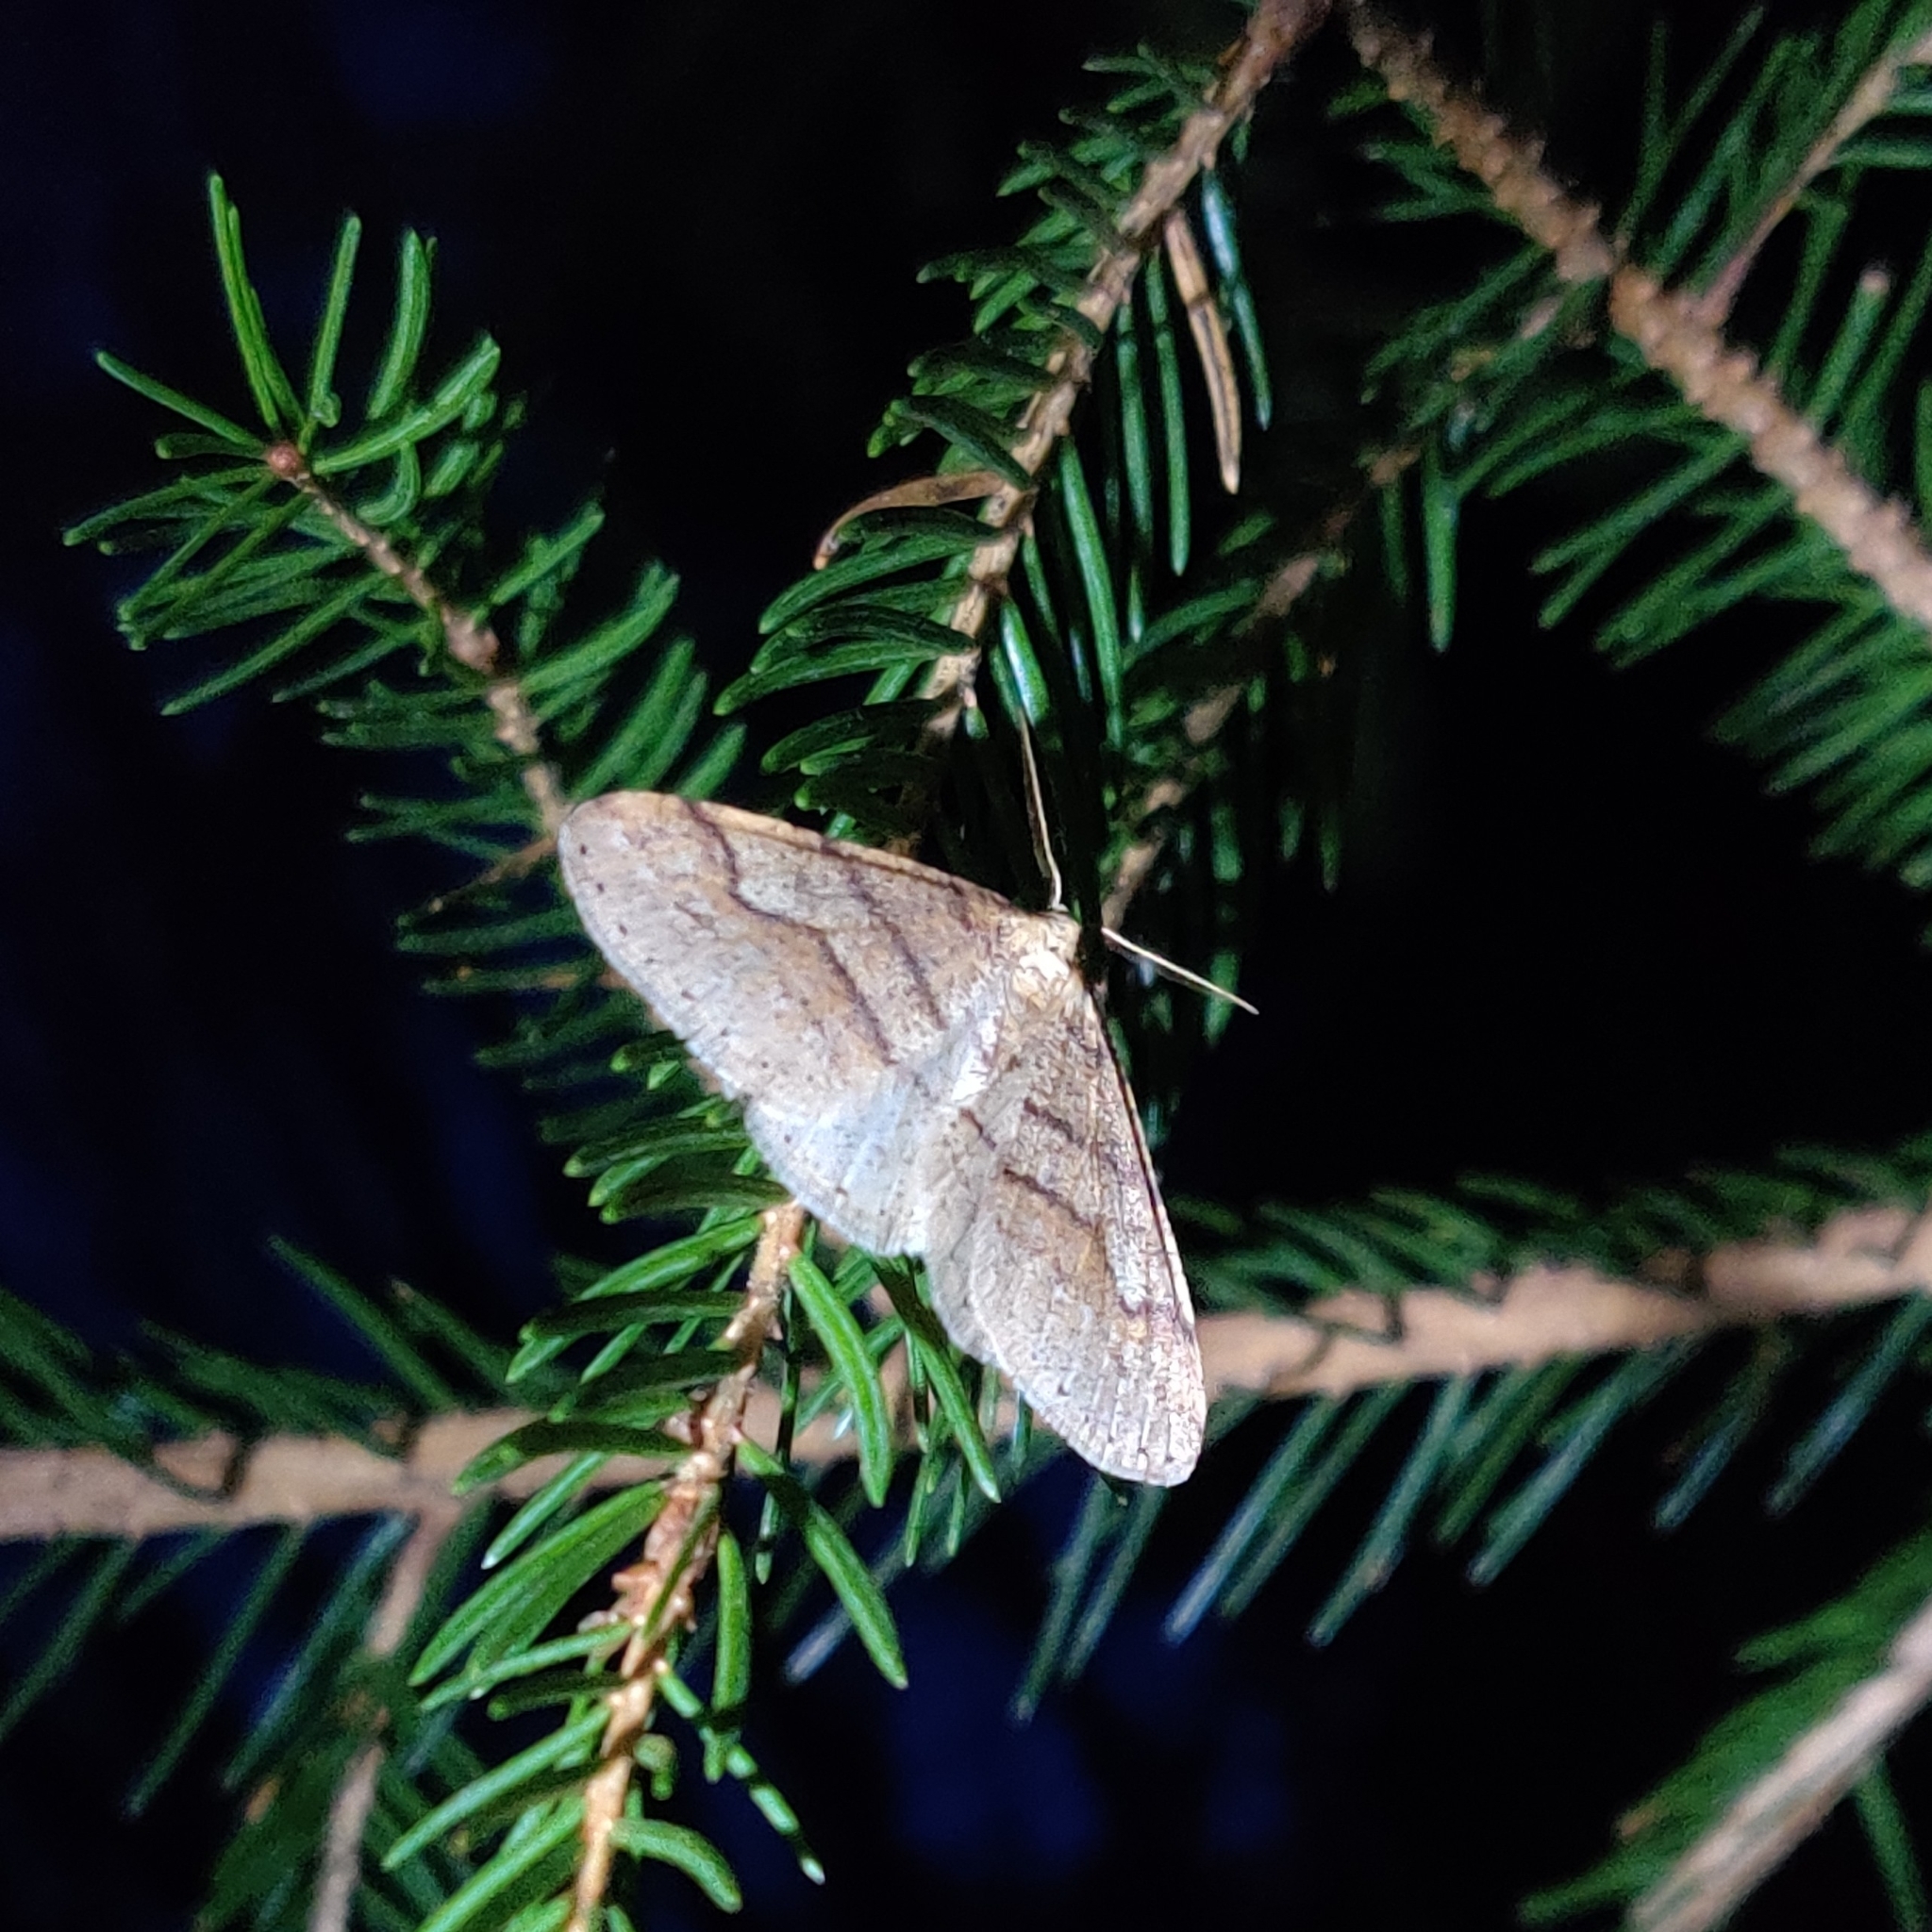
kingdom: Animalia
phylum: Arthropoda
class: Insecta
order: Lepidoptera
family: Geometridae
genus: Agriopis
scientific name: Agriopis marginaria
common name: Dotted border
